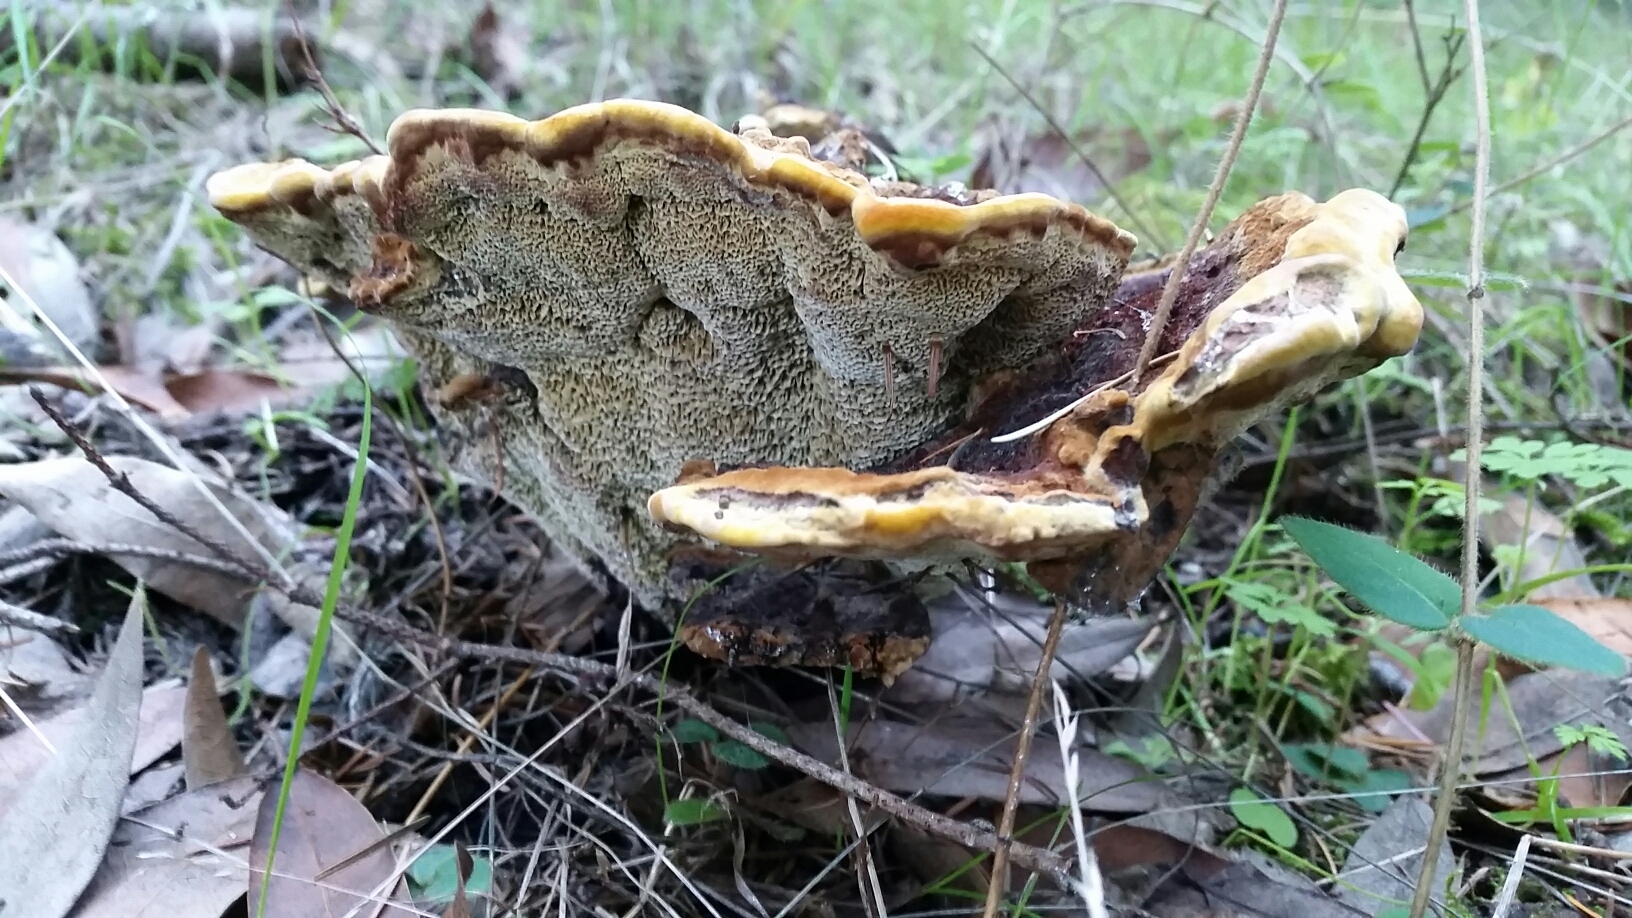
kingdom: Fungi
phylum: Basidiomycota
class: Agaricomycetes
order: Polyporales
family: Laetiporaceae
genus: Phaeolus
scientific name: Phaeolus schweinitzii
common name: Dyer's mazegill
